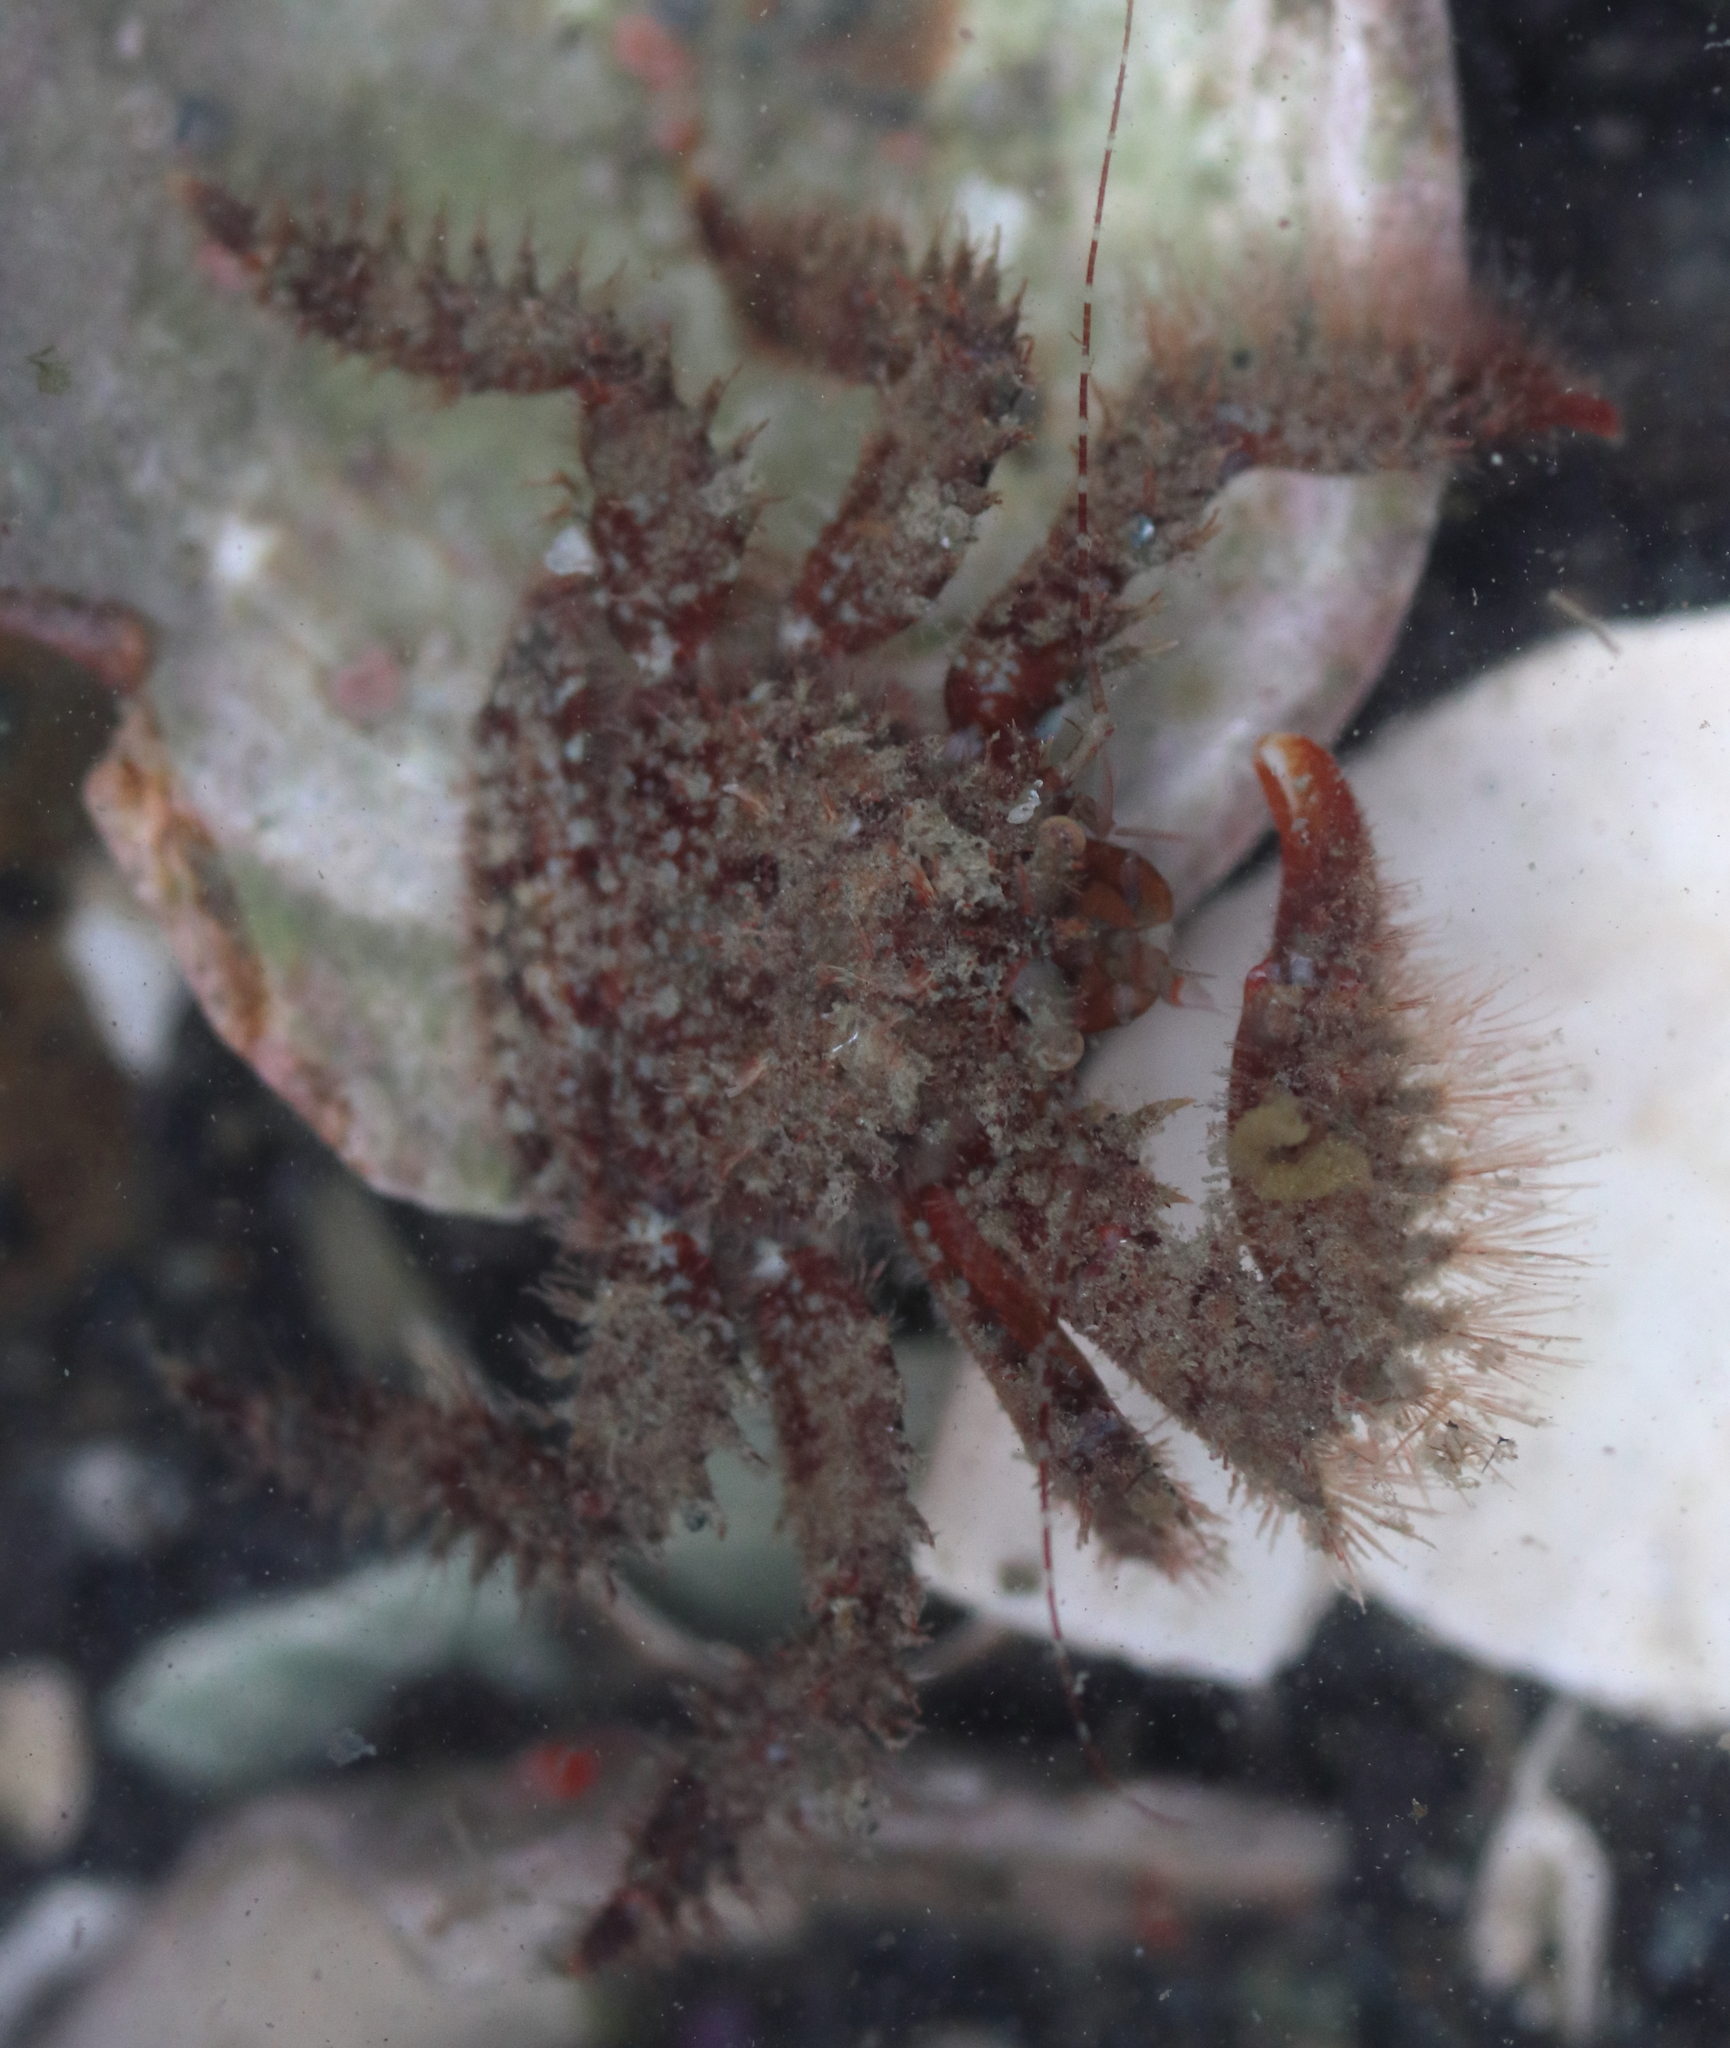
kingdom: Animalia
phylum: Arthropoda
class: Malacostraca
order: Decapoda
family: Hapalogastridae
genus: Hapalogaster
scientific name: Hapalogaster mertensii
